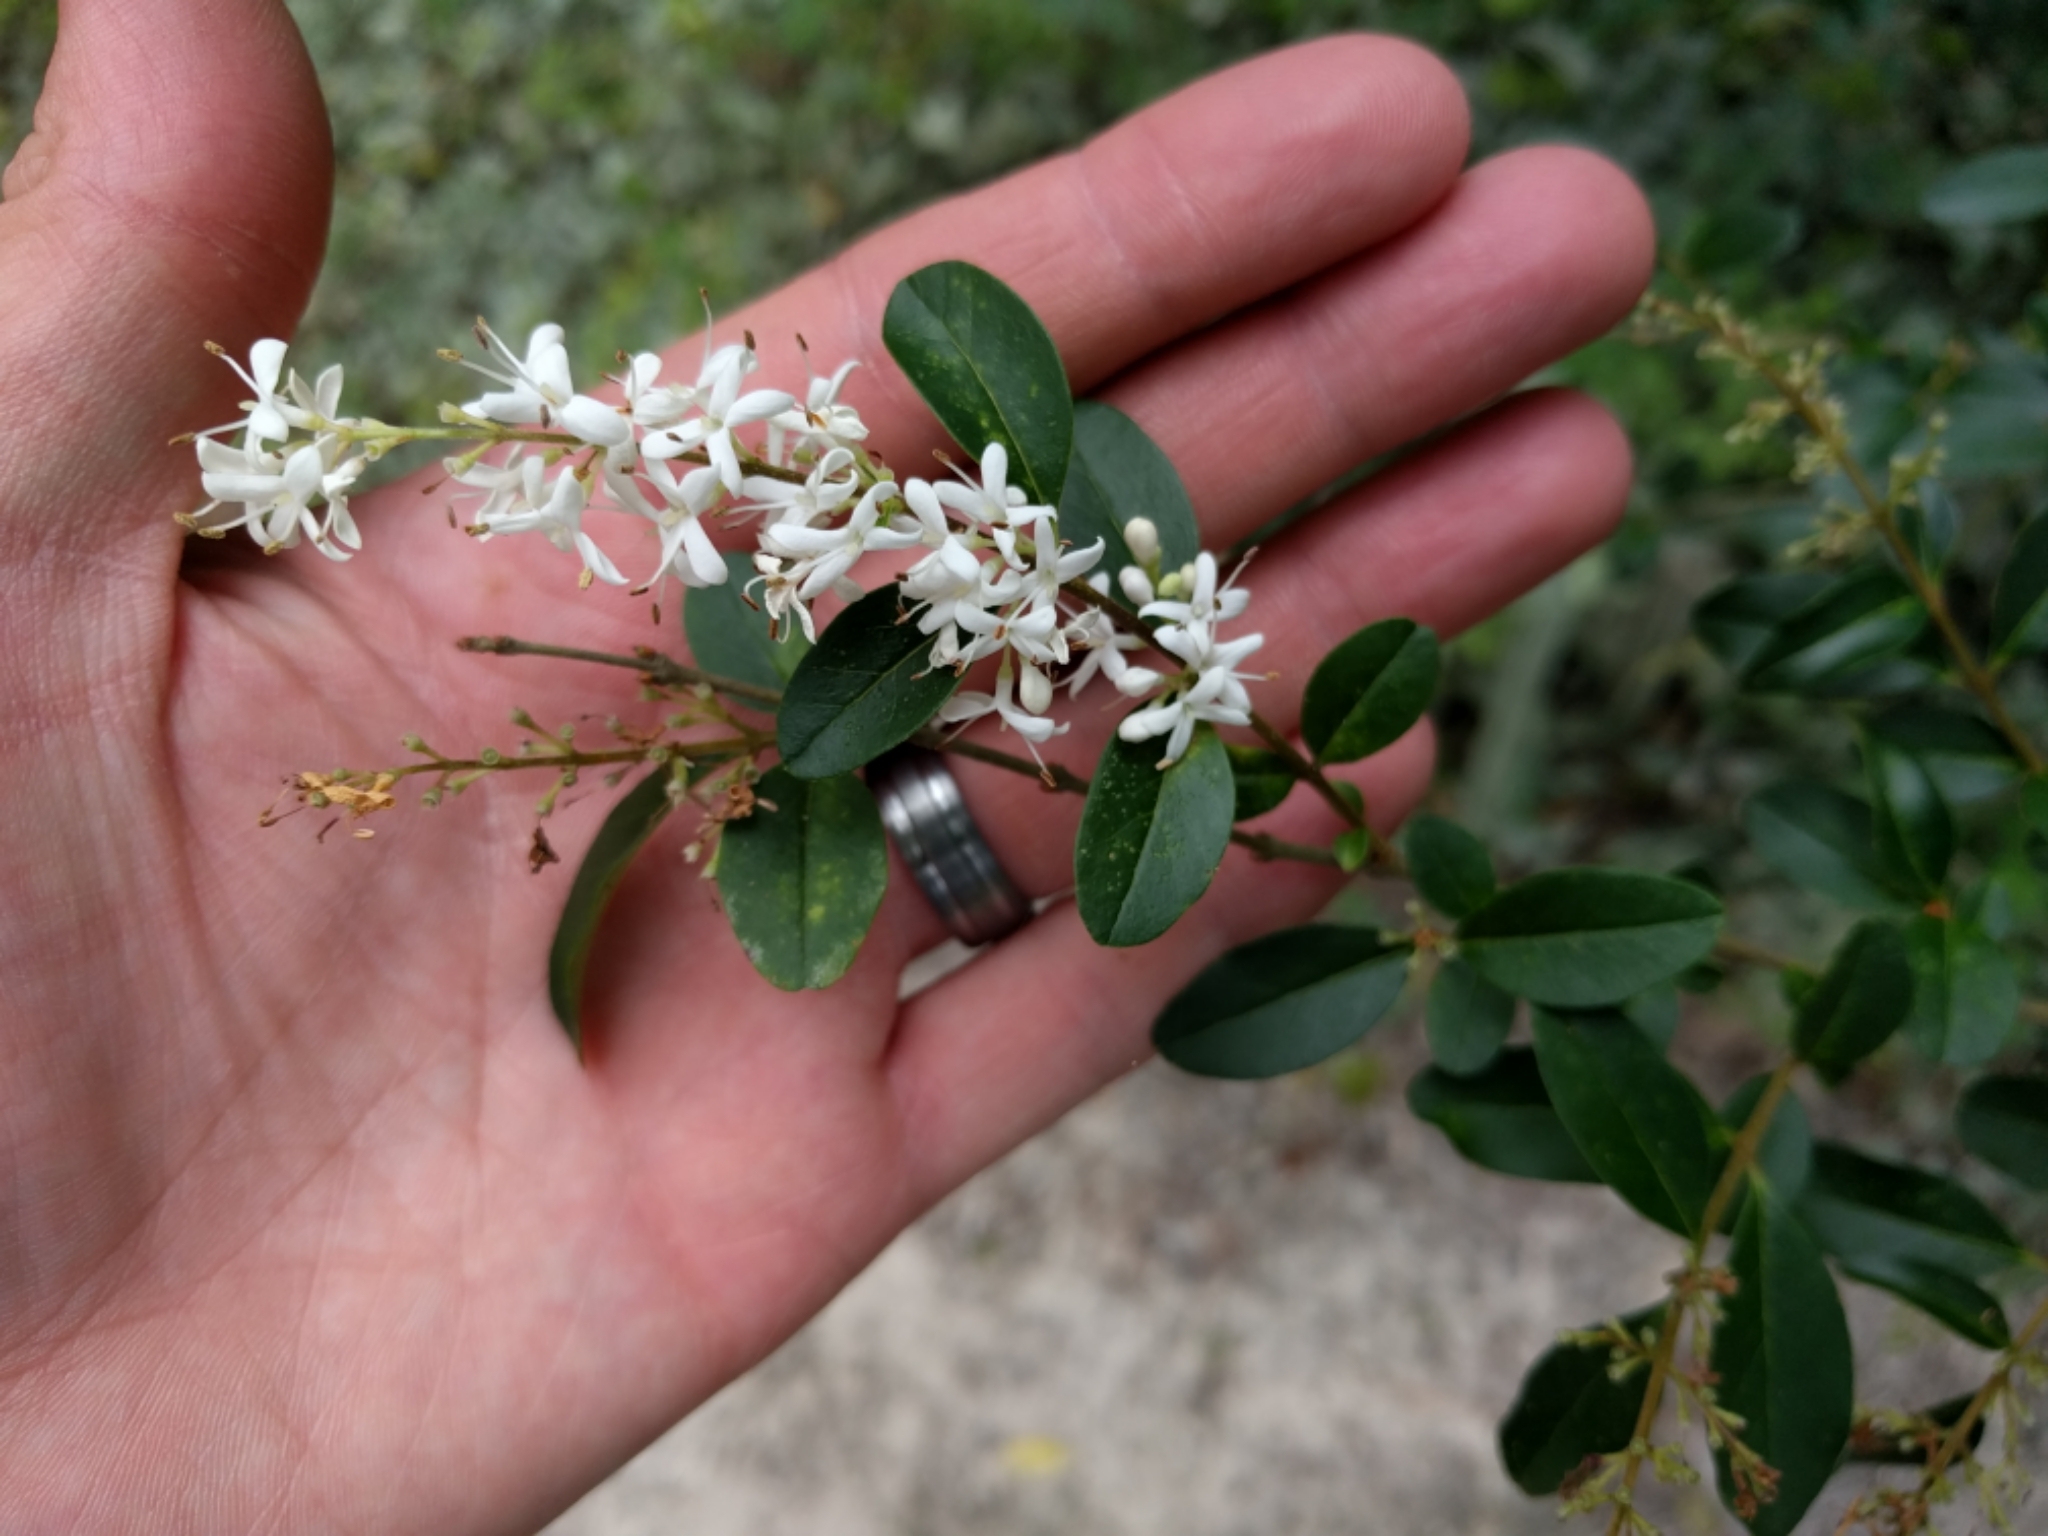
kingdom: Plantae
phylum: Tracheophyta
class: Magnoliopsida
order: Lamiales
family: Oleaceae
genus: Ligustrum
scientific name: Ligustrum sinense
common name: Chinese privet
